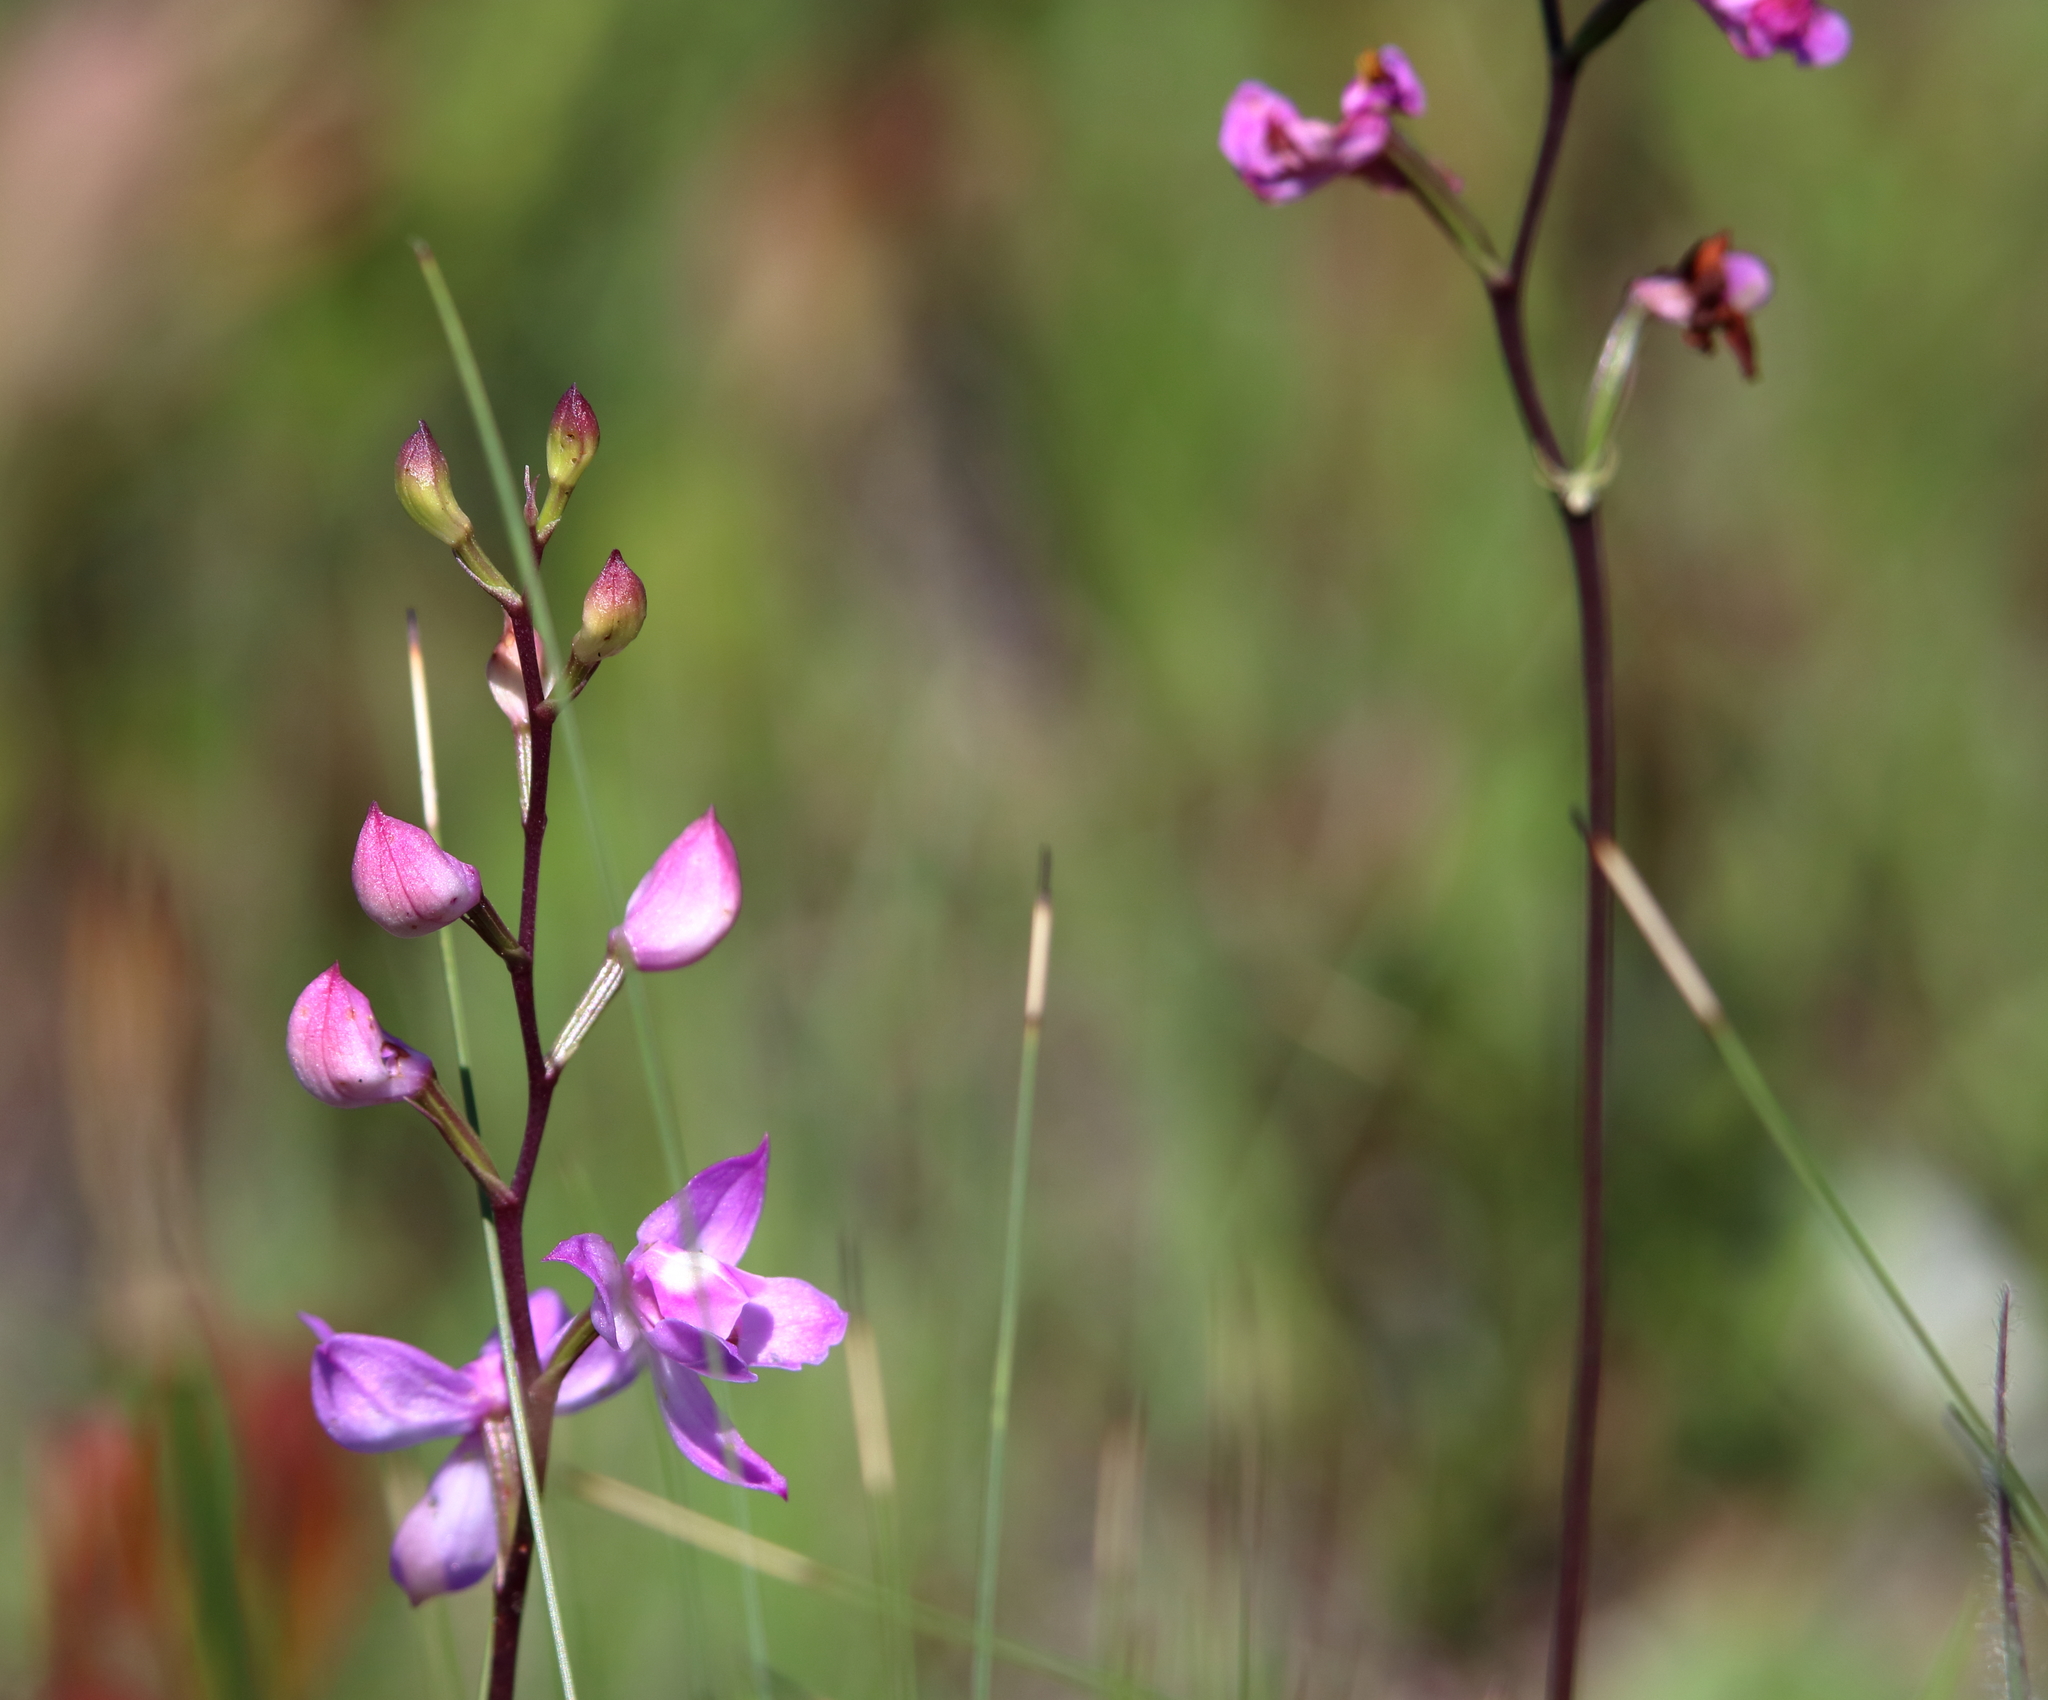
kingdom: Plantae
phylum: Tracheophyta
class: Liliopsida
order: Asparagales
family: Orchidaceae
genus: Calopogon
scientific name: Calopogon multiflorus
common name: Many-flowered grass-pink orchid
